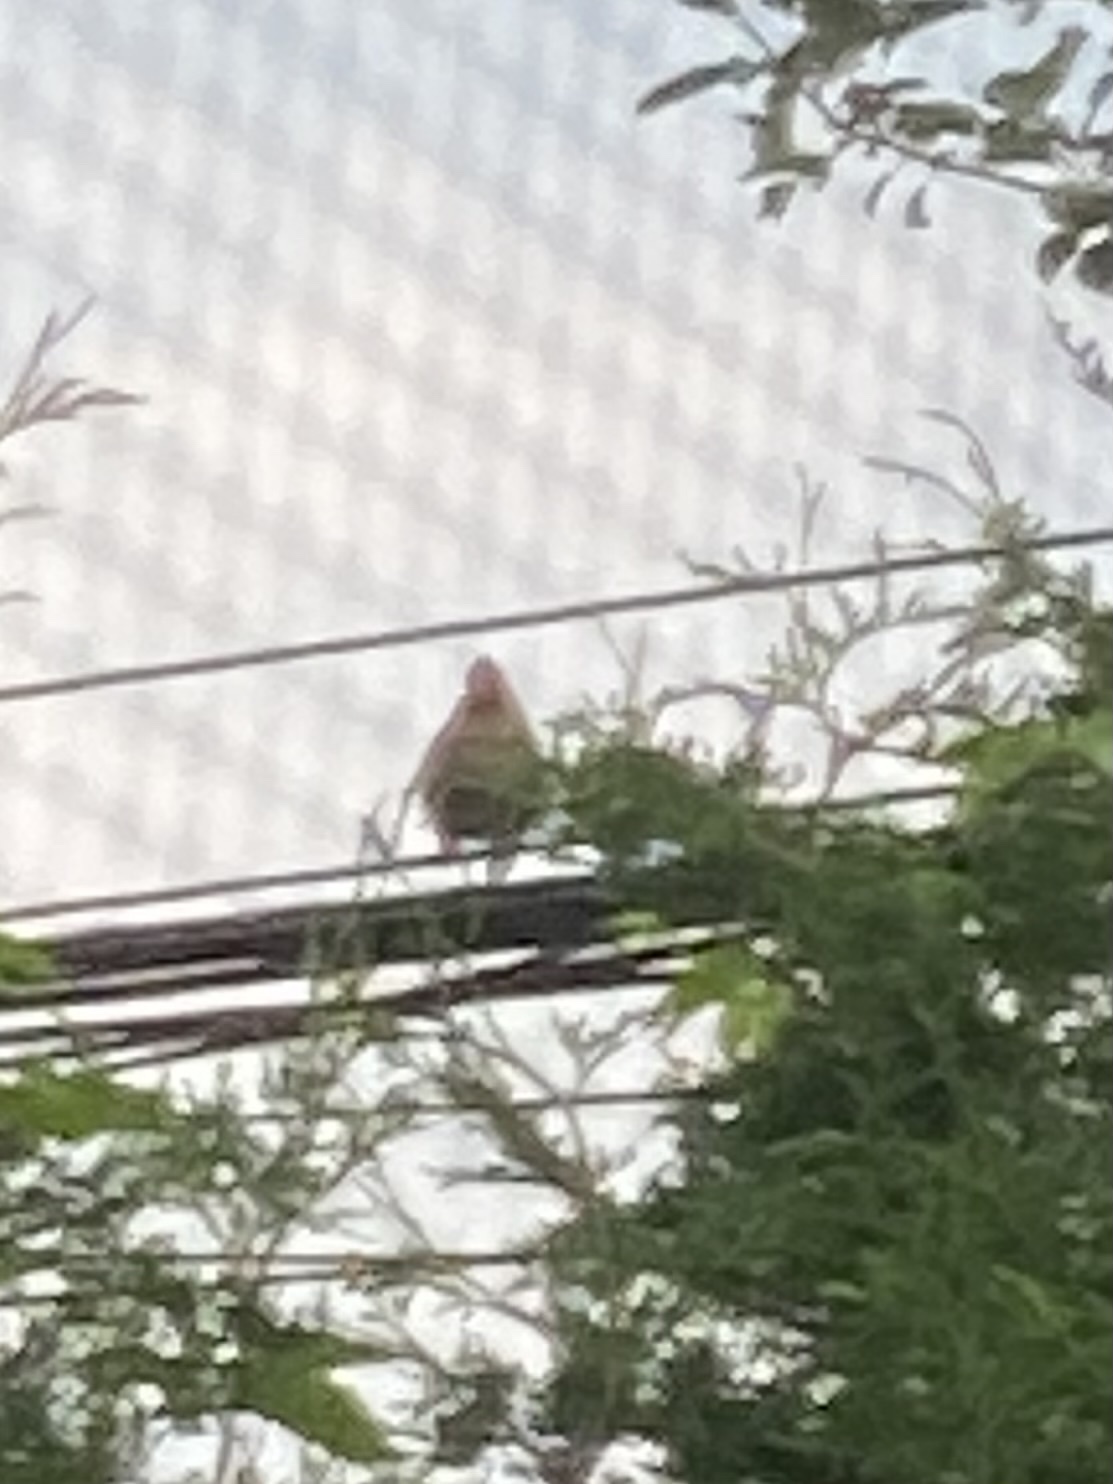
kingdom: Animalia
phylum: Chordata
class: Aves
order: Passeriformes
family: Cardinalidae
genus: Cardinalis
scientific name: Cardinalis cardinalis
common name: Northern cardinal
